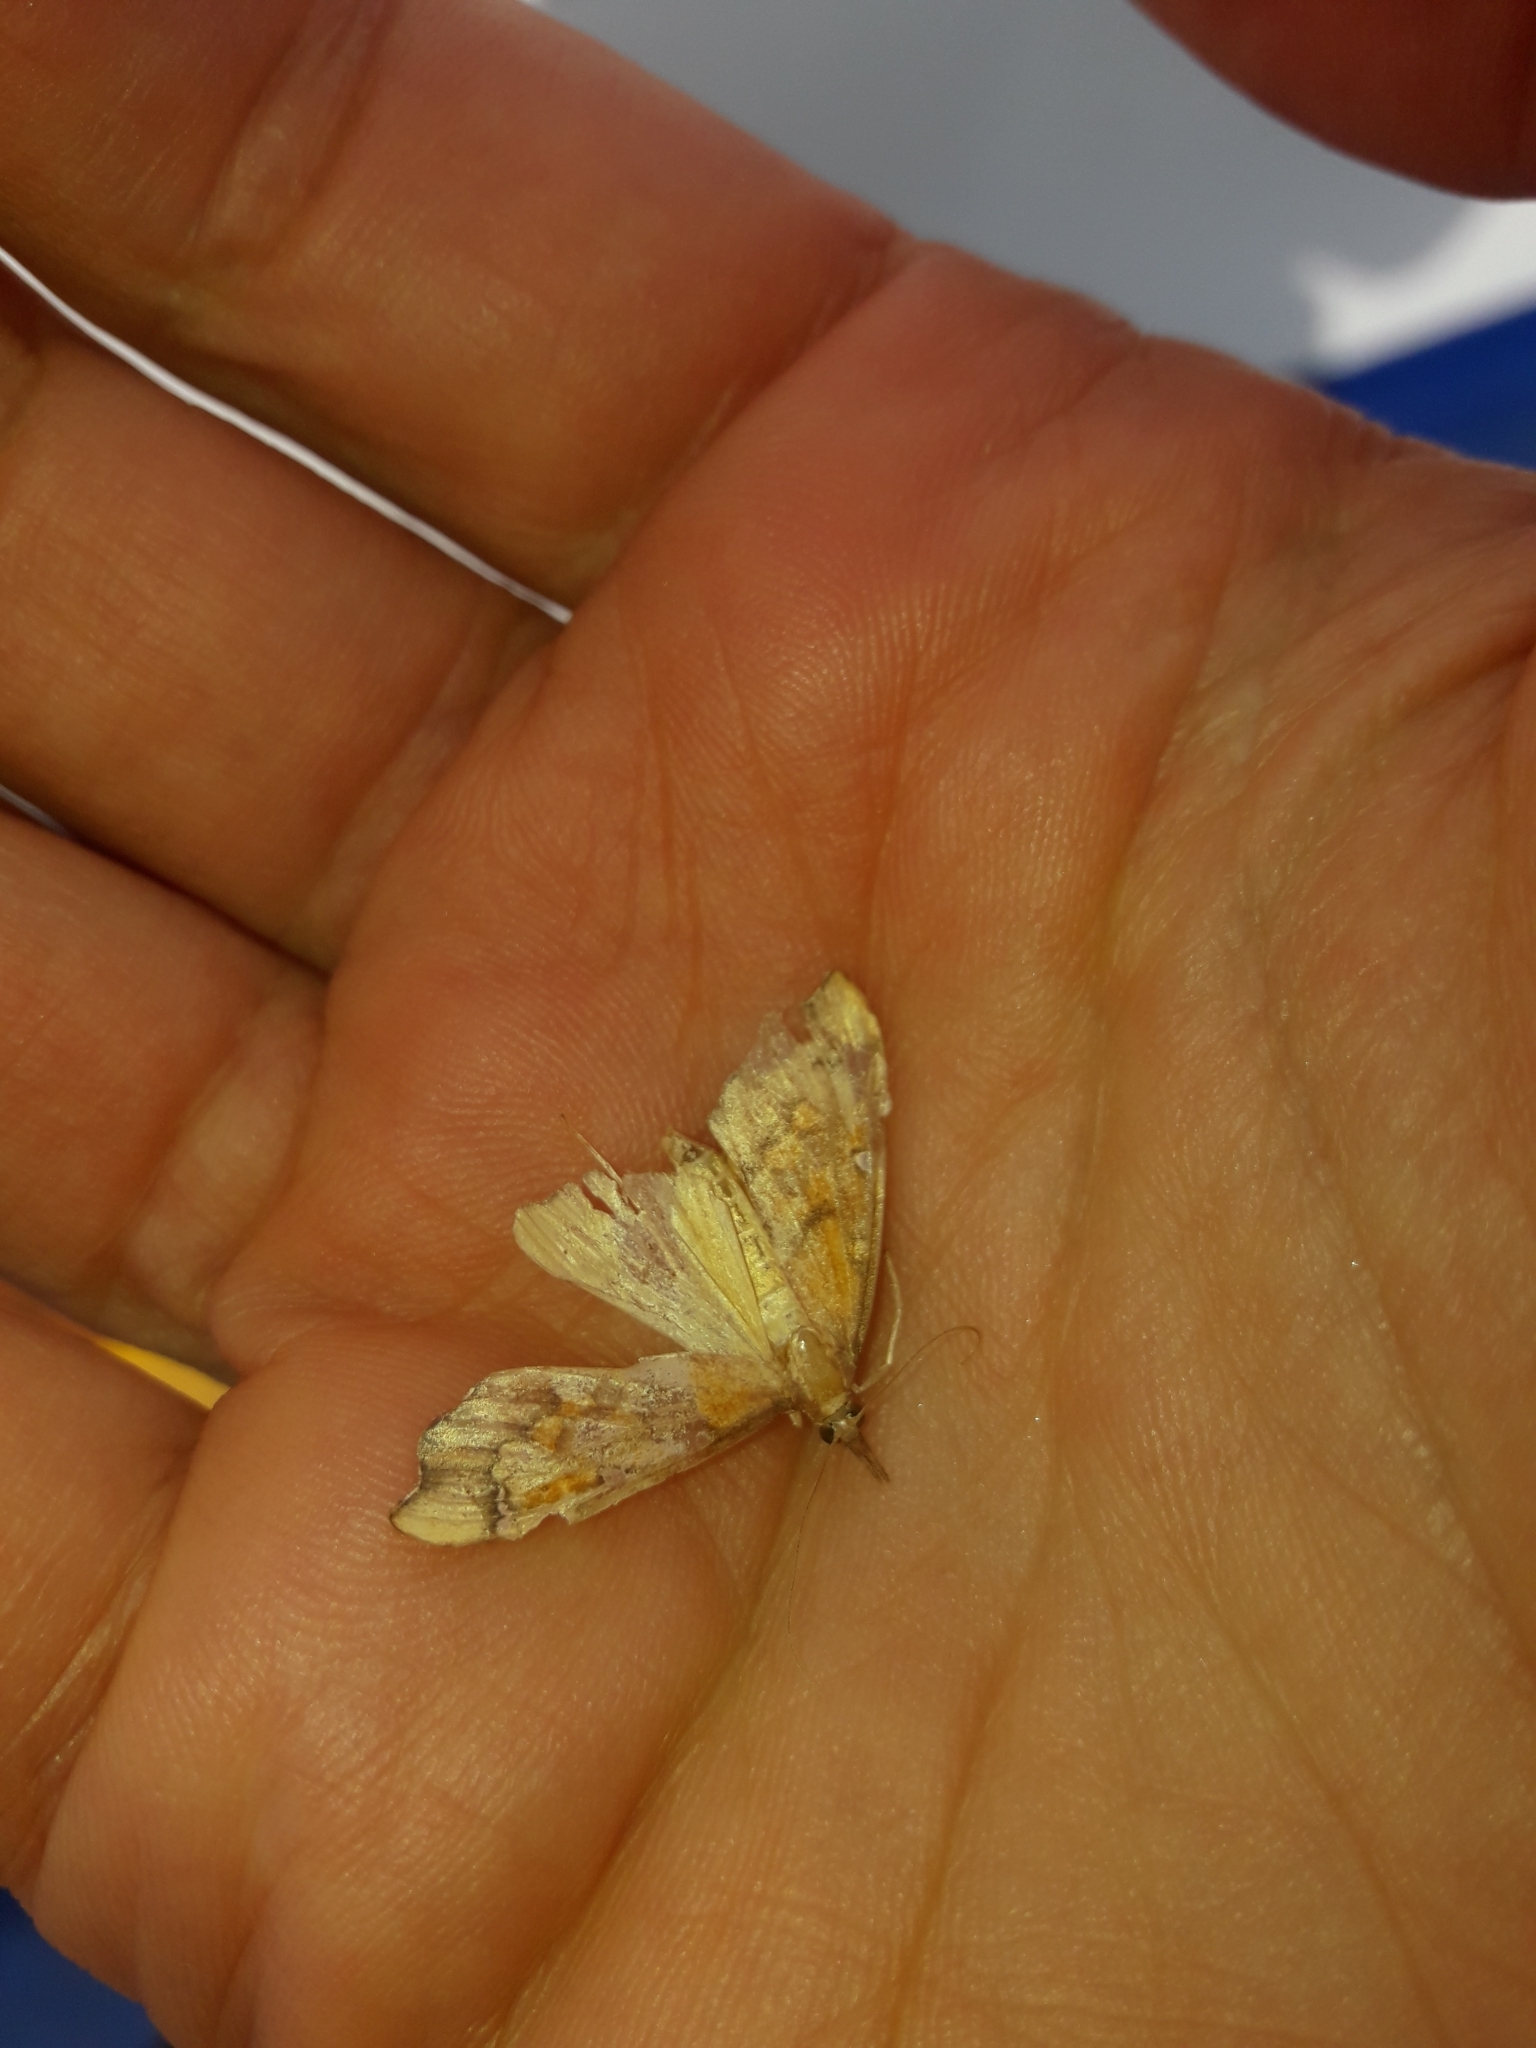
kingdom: Animalia
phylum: Arthropoda
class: Insecta
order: Lepidoptera
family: Crambidae
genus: Deana
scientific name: Deana hybreasalis
